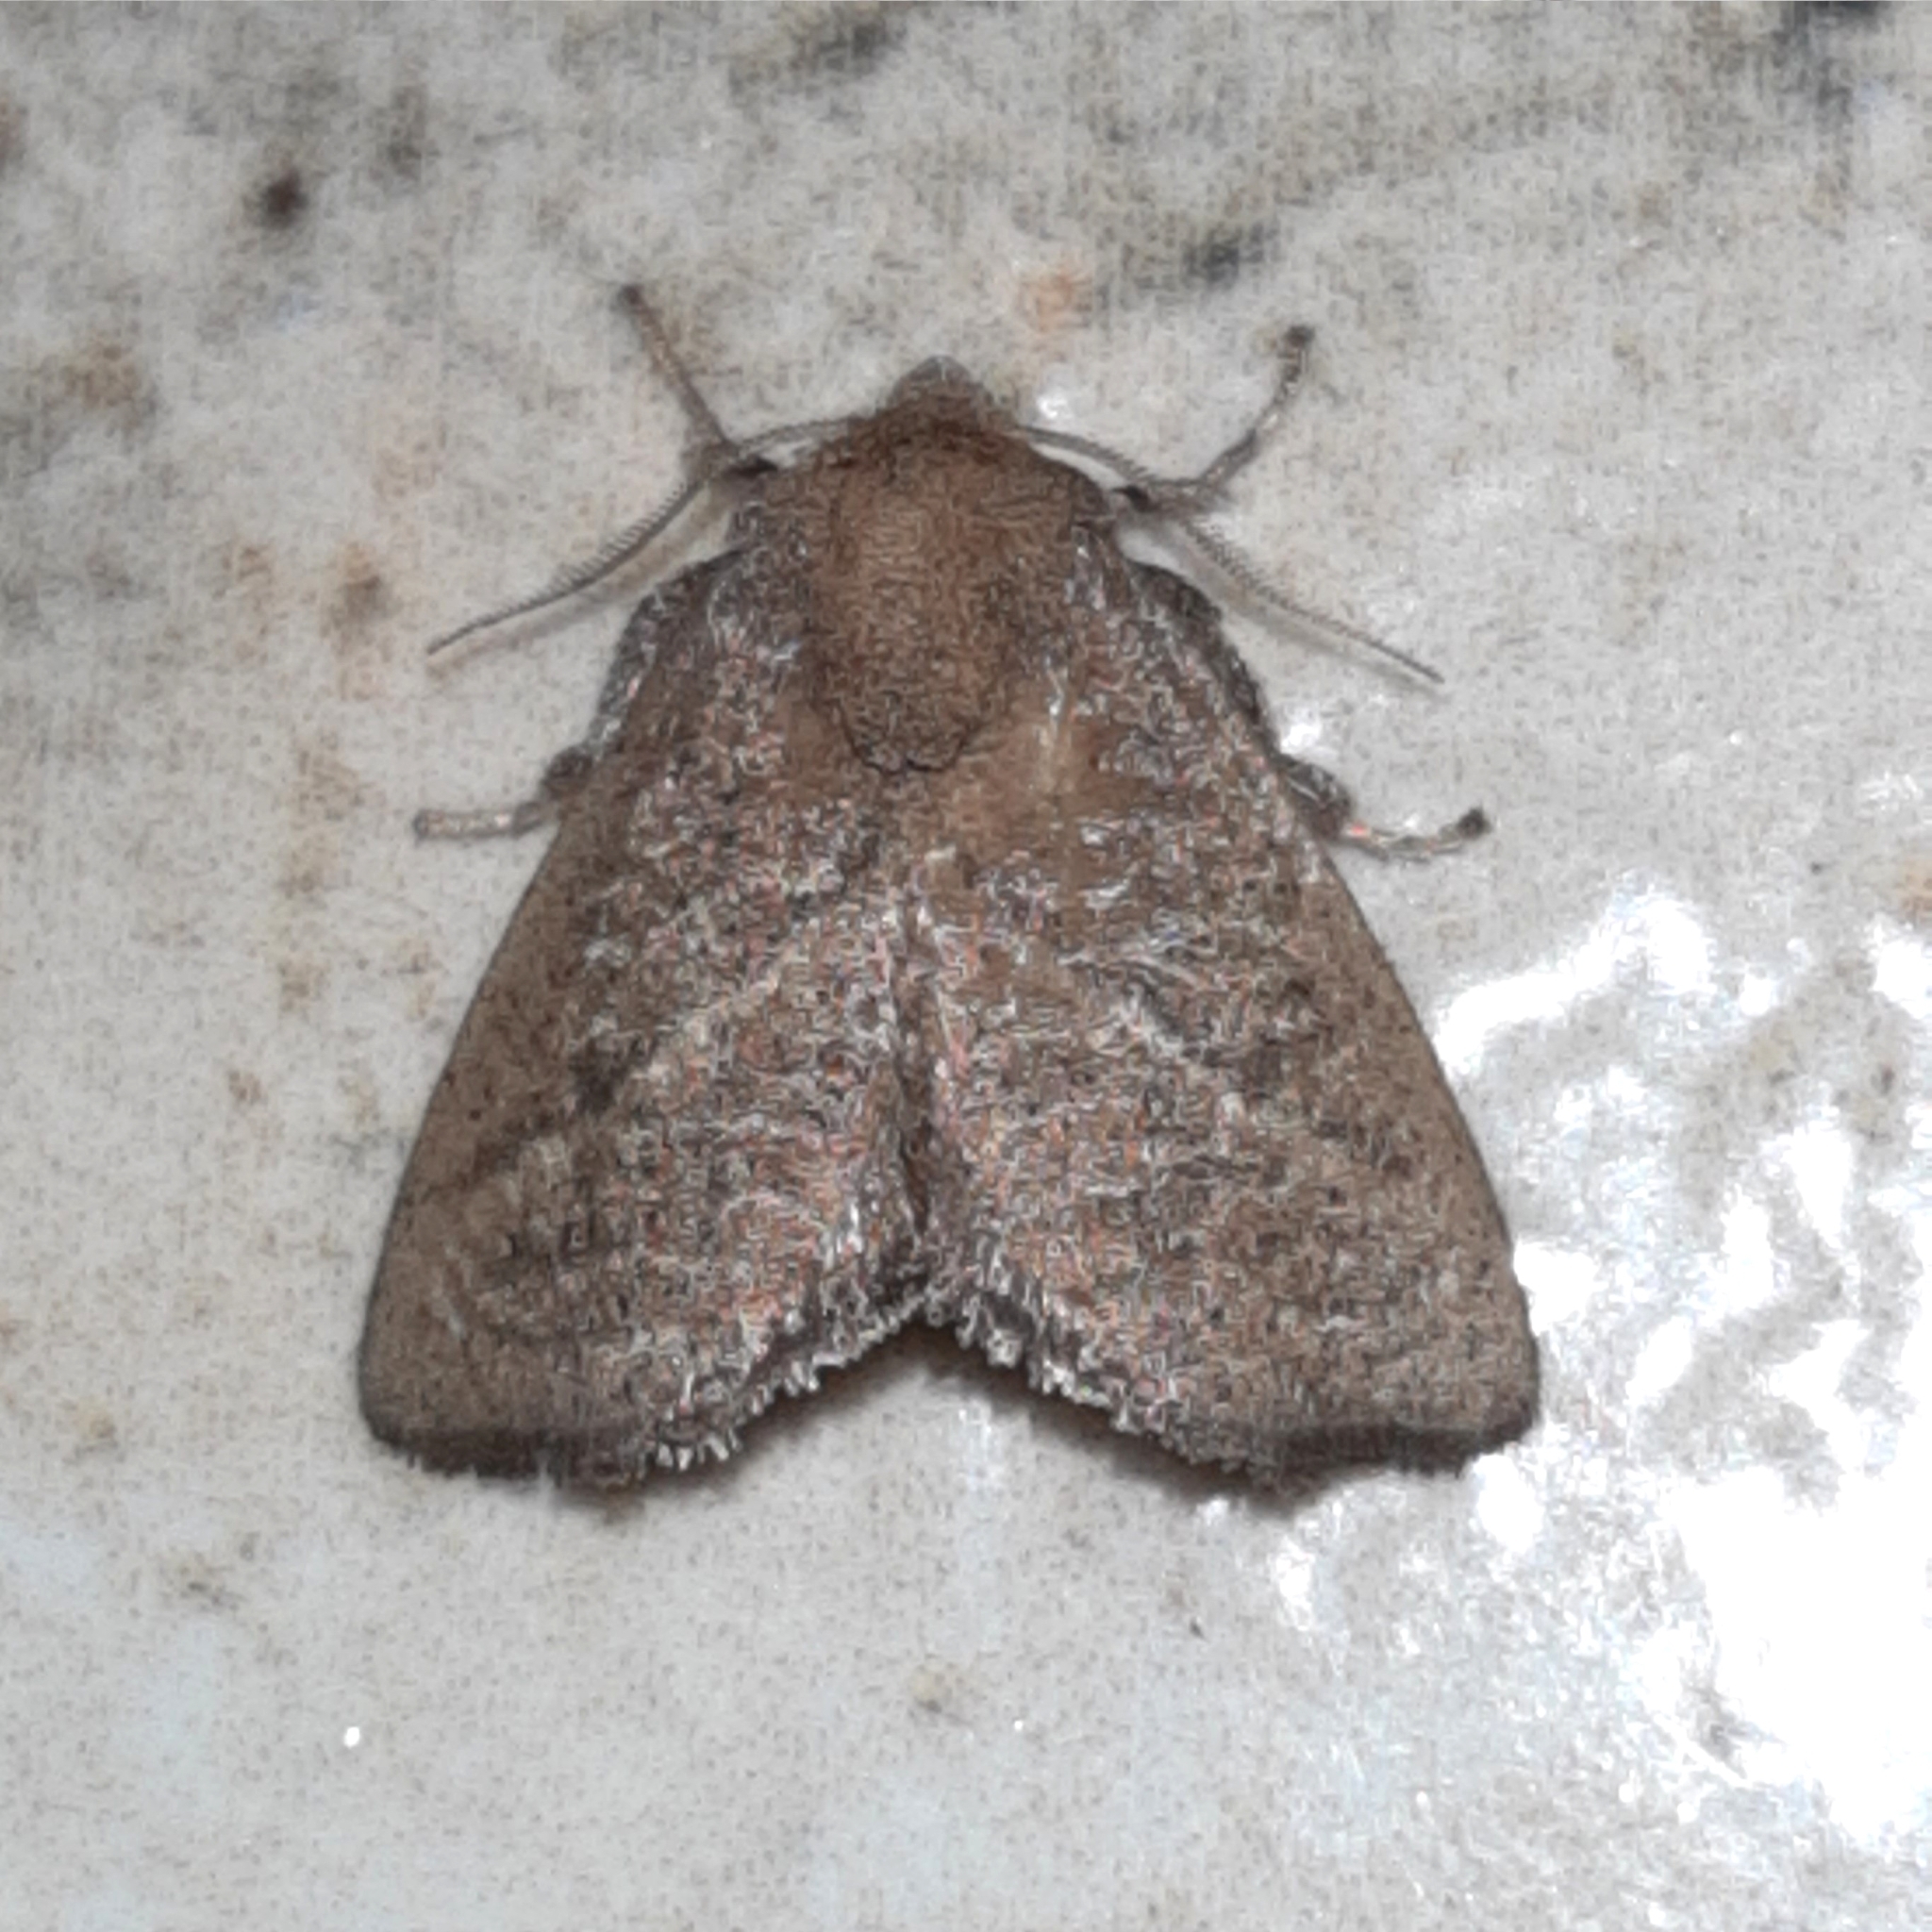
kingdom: Animalia
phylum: Arthropoda
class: Insecta
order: Lepidoptera
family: Limacodidae
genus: Epiclea
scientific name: Epiclea elaea
